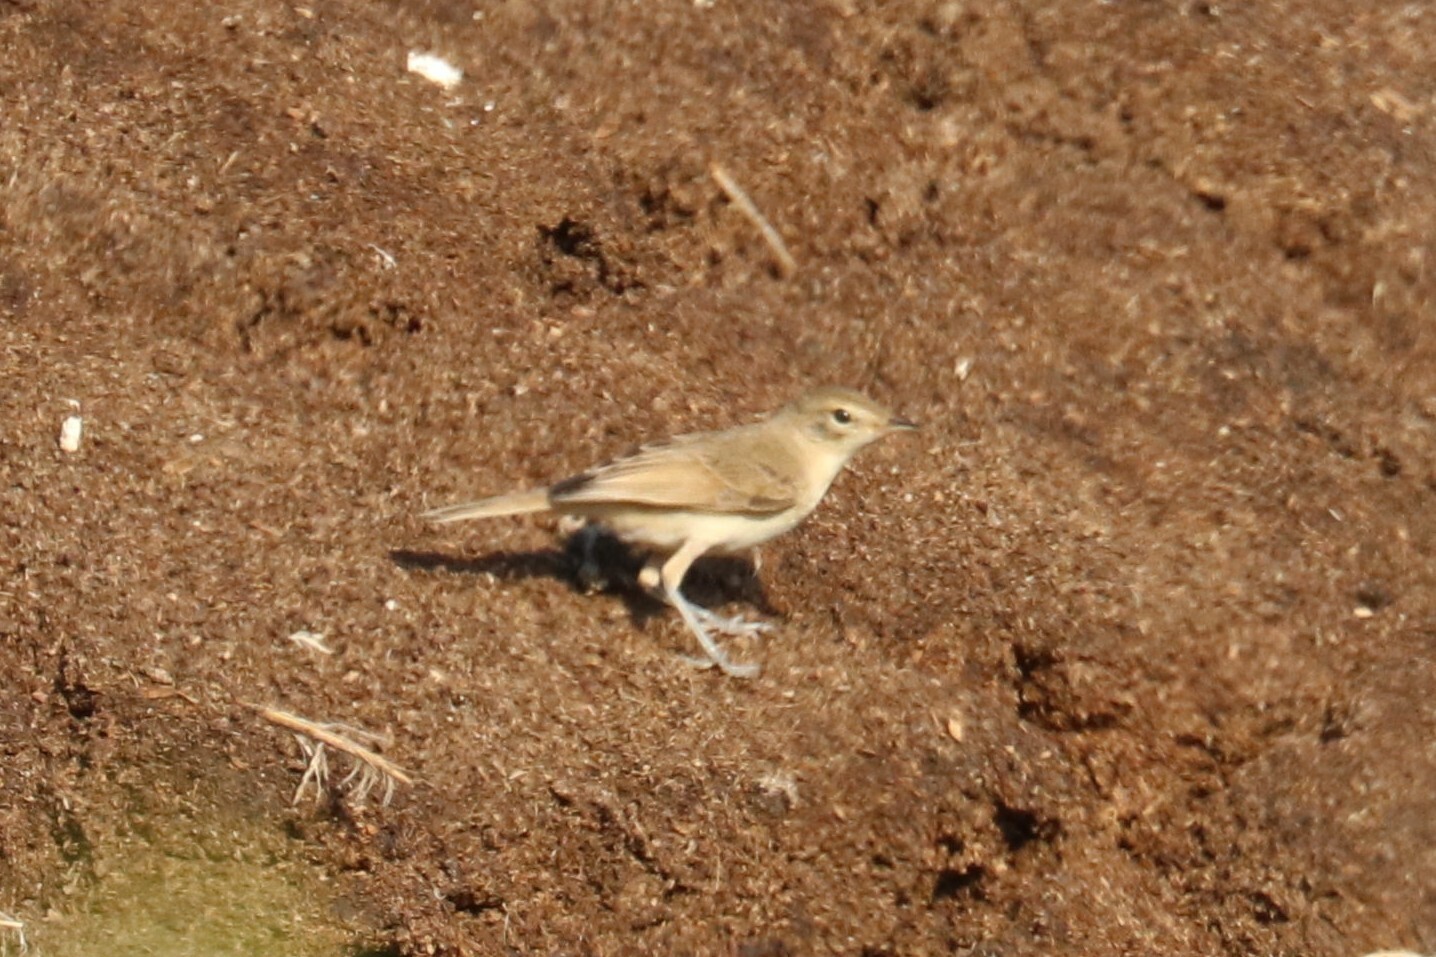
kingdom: Animalia
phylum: Chordata
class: Aves
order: Passeriformes
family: Acrocephalidae
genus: Iduna
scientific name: Iduna caligata
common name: Booted warbler
